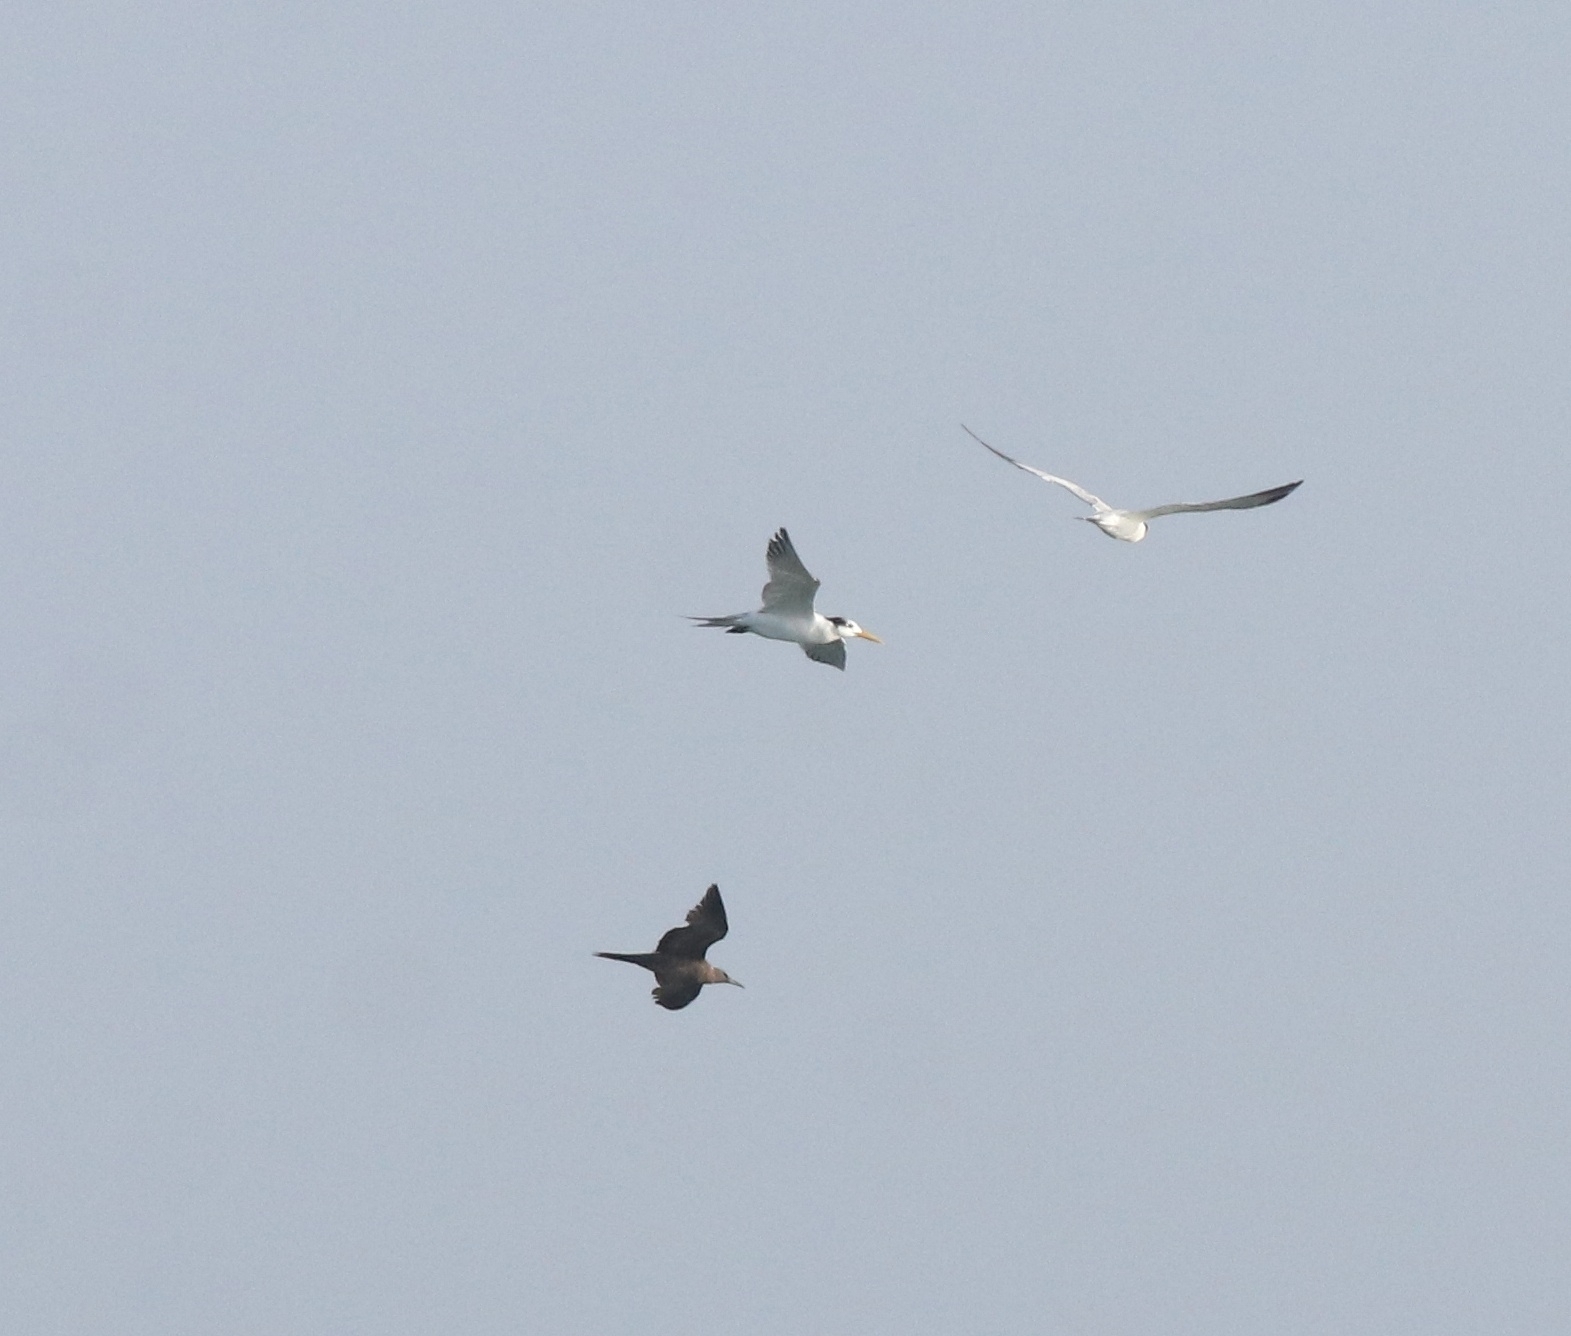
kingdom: Animalia
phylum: Chordata
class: Aves
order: Charadriiformes
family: Laridae
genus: Thalasseus
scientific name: Thalasseus bergii
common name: Greater crested tern
